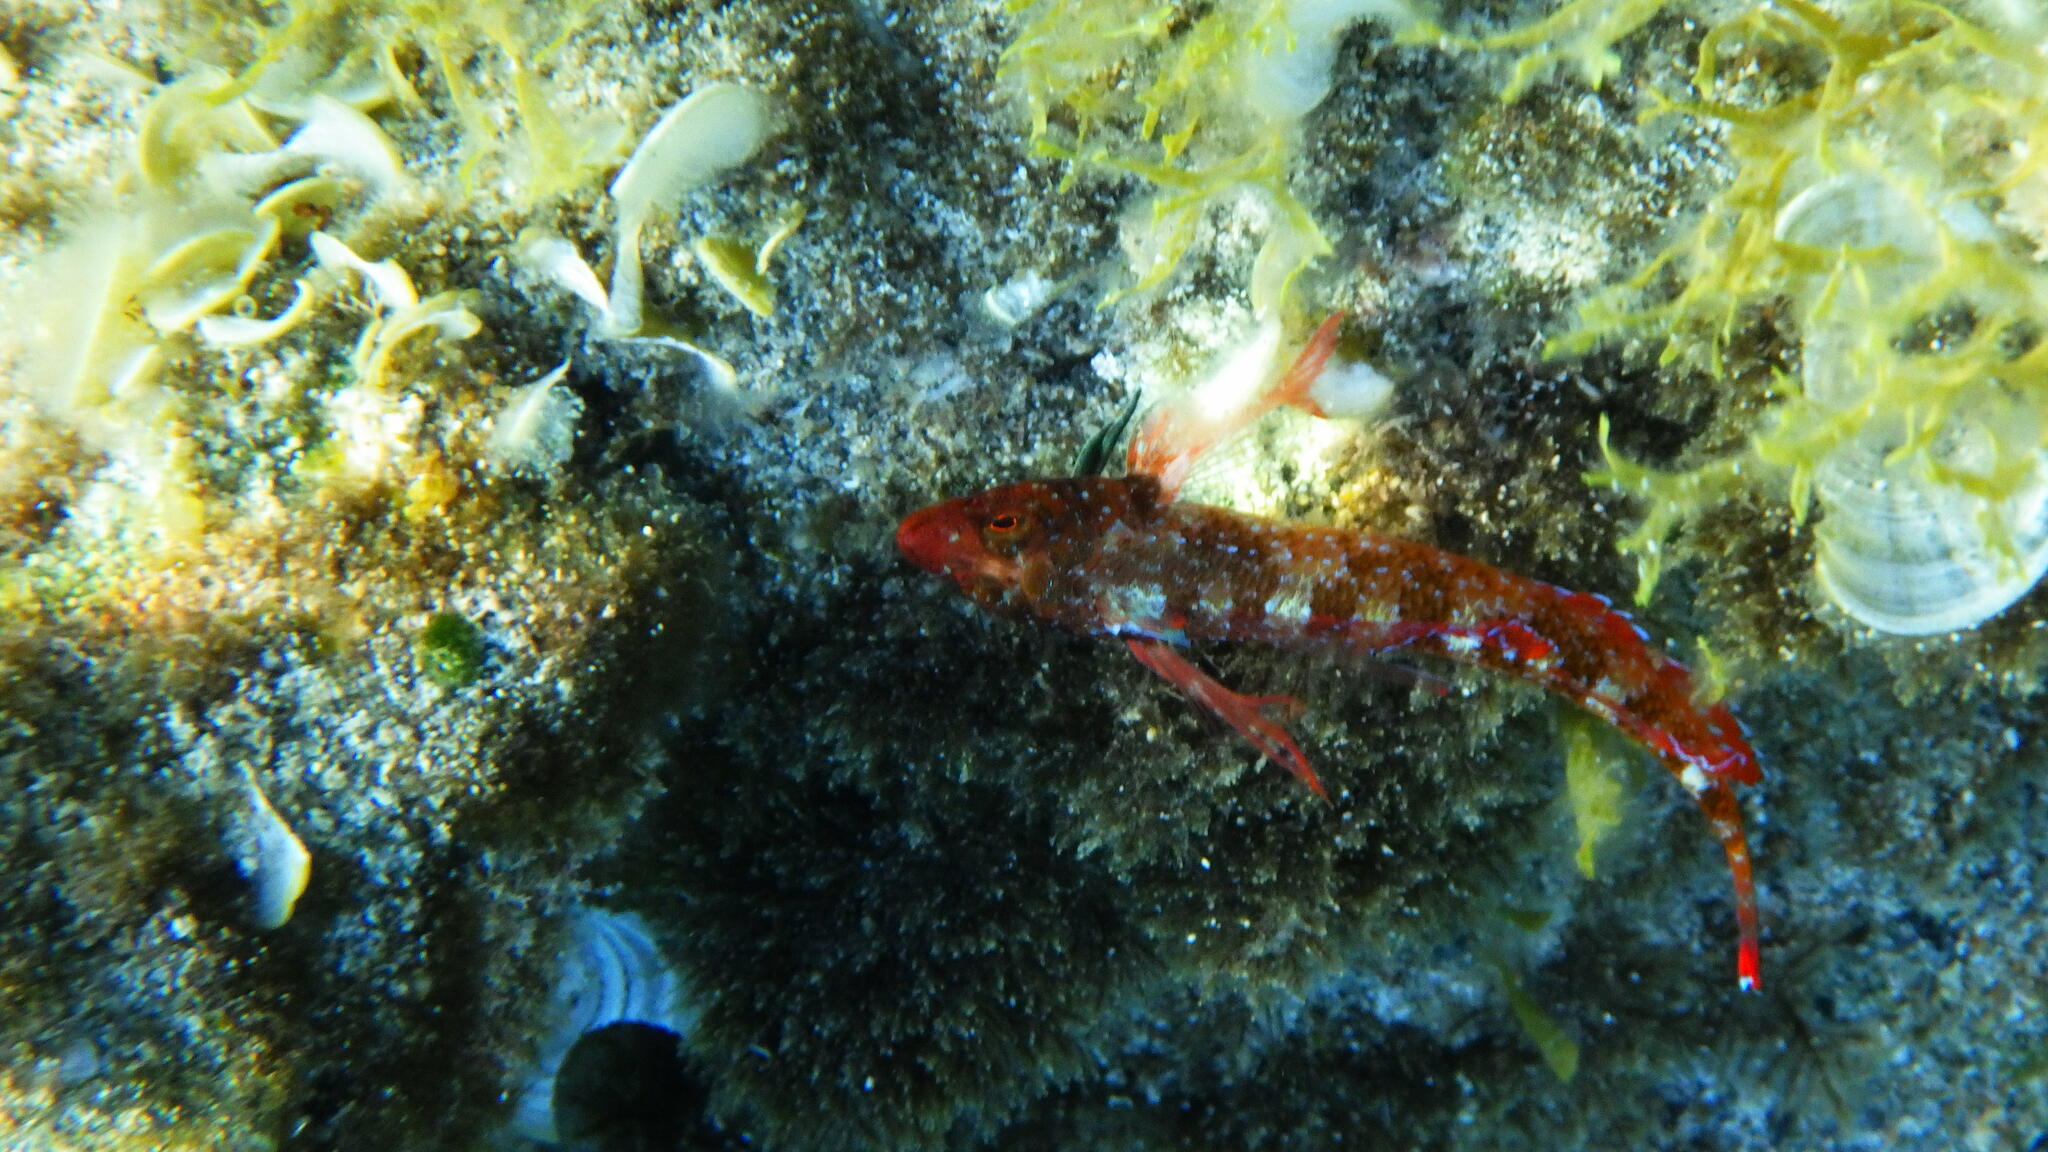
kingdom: Animalia
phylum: Chordata
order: Perciformes
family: Tripterygiidae
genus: Tripterygion
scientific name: Tripterygion tripteronotum
